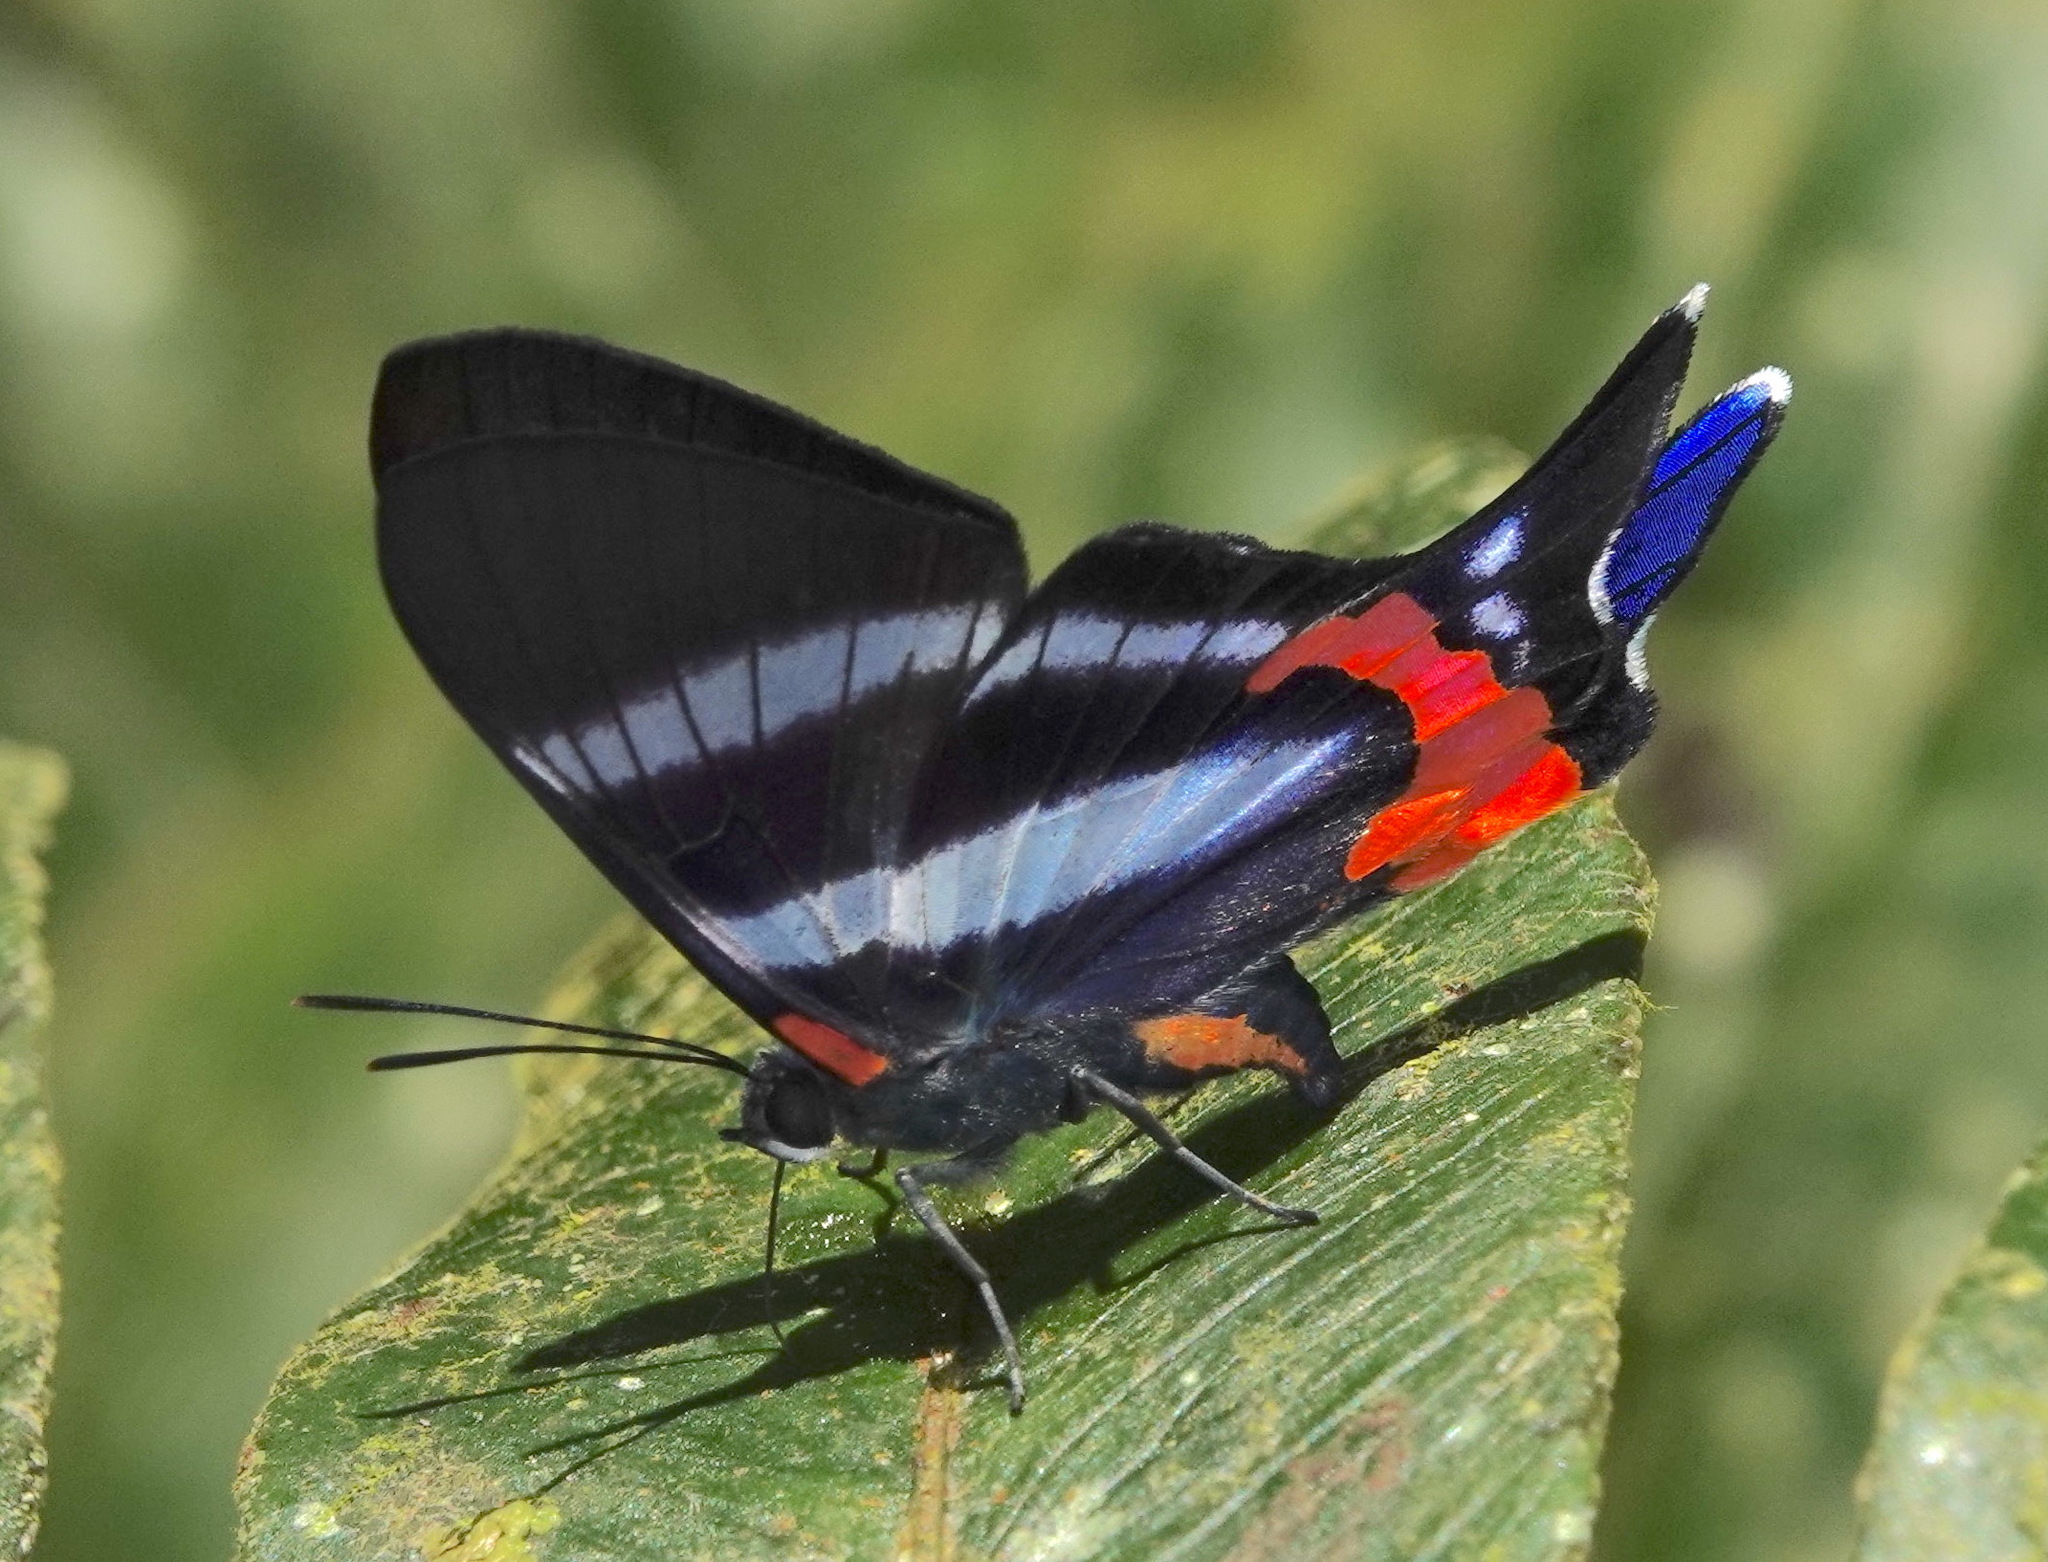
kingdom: Animalia
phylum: Arthropoda
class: Insecta
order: Lepidoptera
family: Riodinidae
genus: Rhetus
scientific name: Rhetus dysonii
